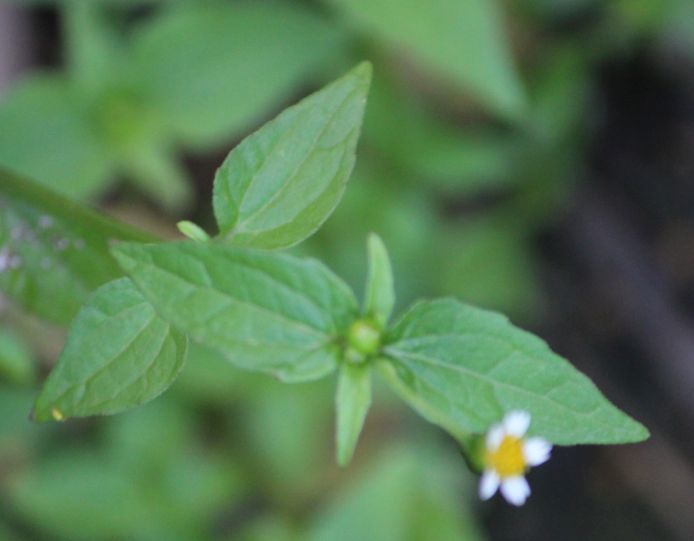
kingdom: Plantae
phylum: Tracheophyta
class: Magnoliopsida
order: Asterales
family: Asteraceae
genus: Galinsoga
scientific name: Galinsoga parviflora
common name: Gallant soldier
